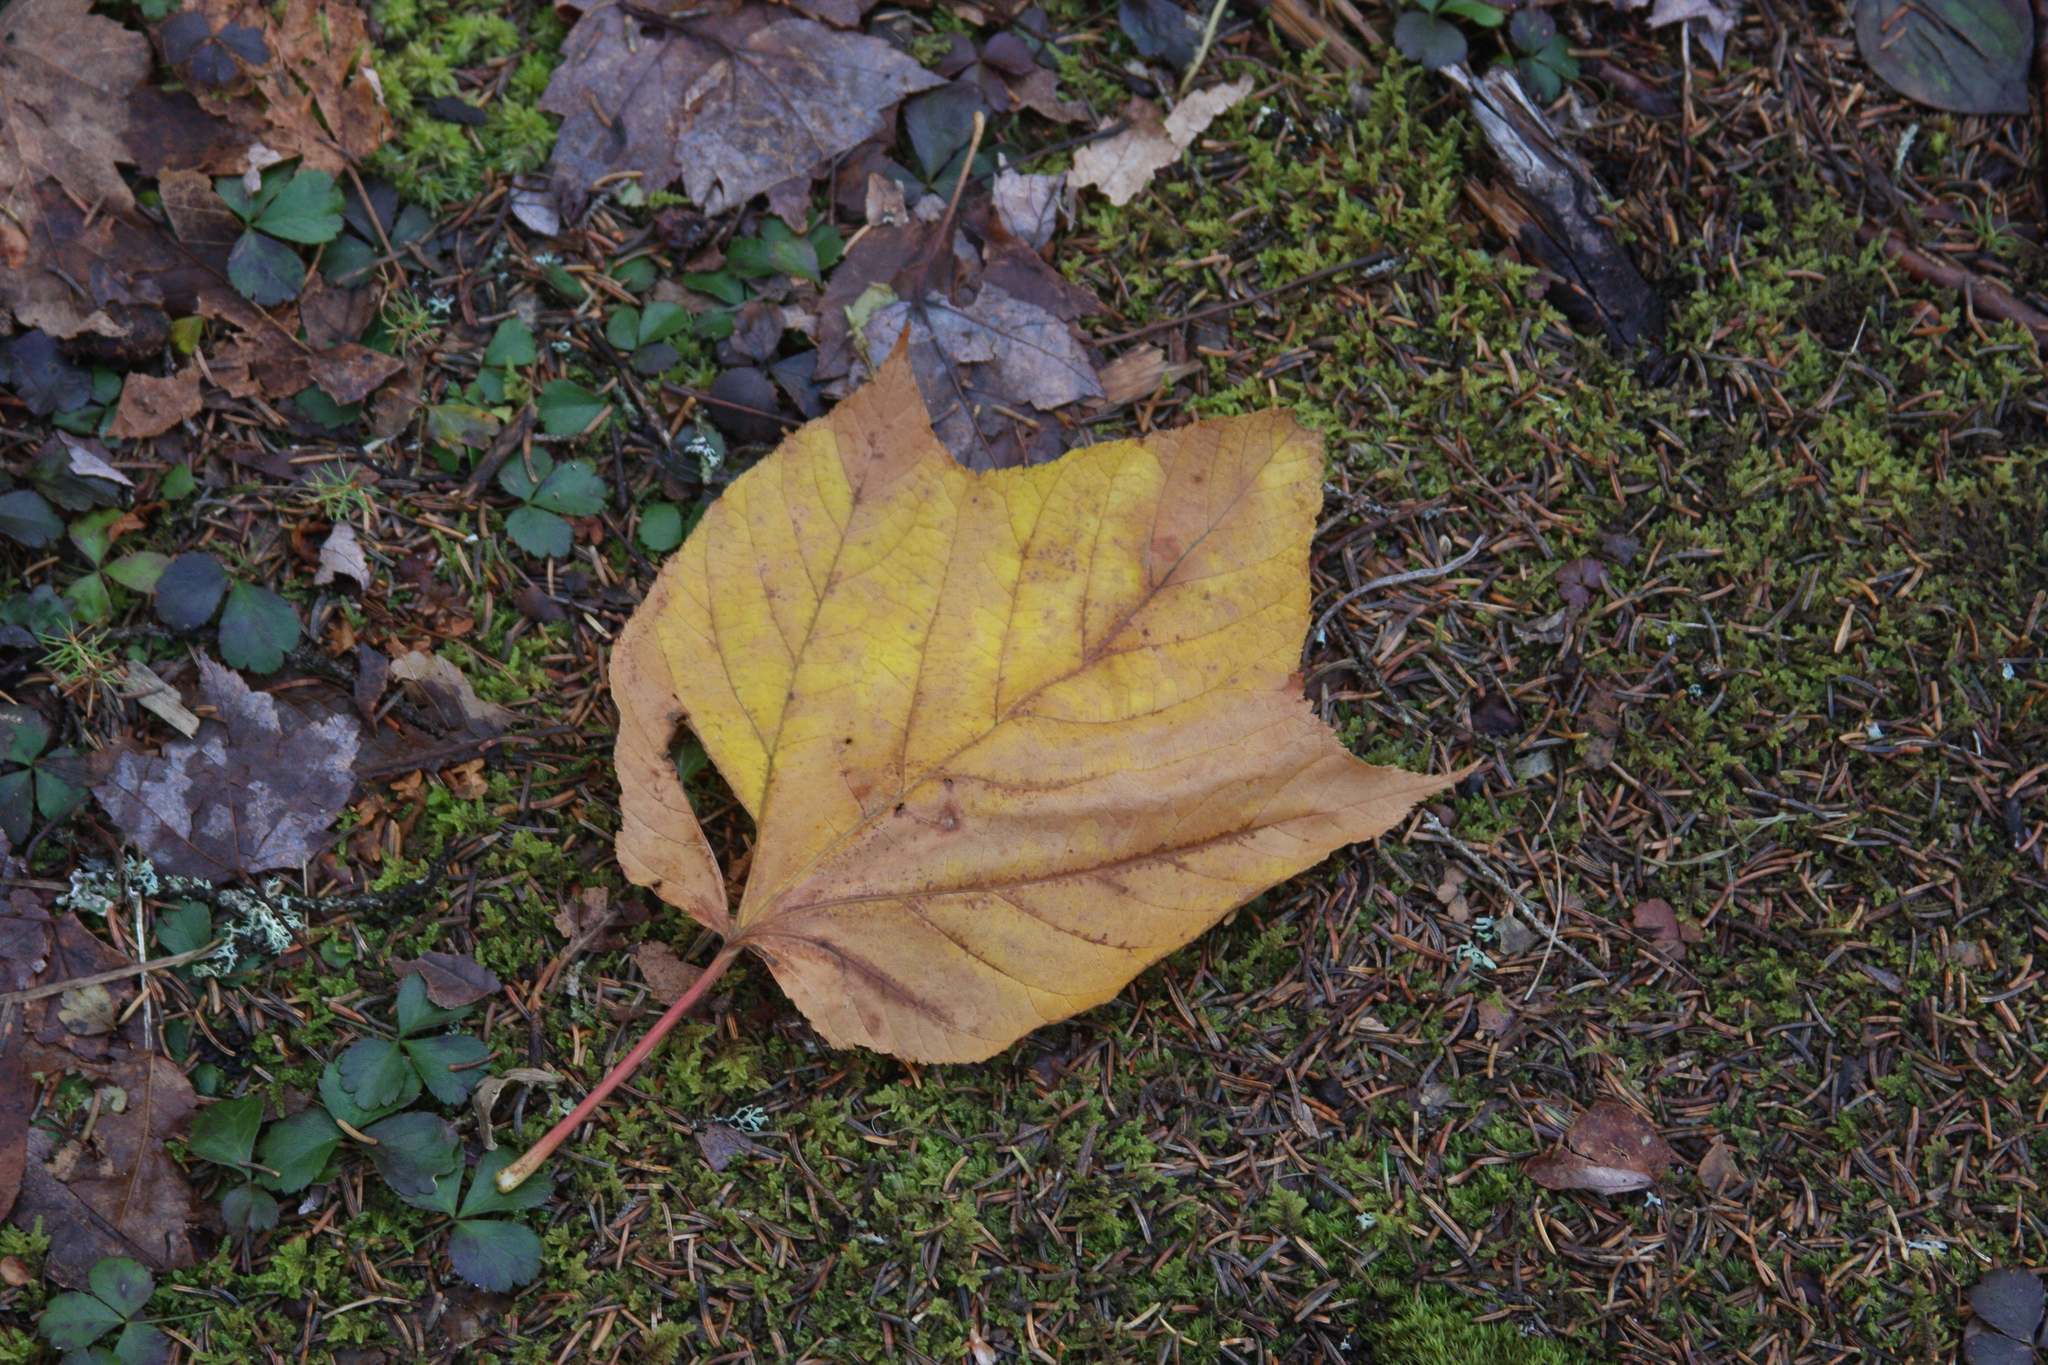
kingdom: Plantae
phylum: Tracheophyta
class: Magnoliopsida
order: Sapindales
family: Sapindaceae
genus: Acer
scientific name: Acer pensylvanicum
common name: Moosewood
